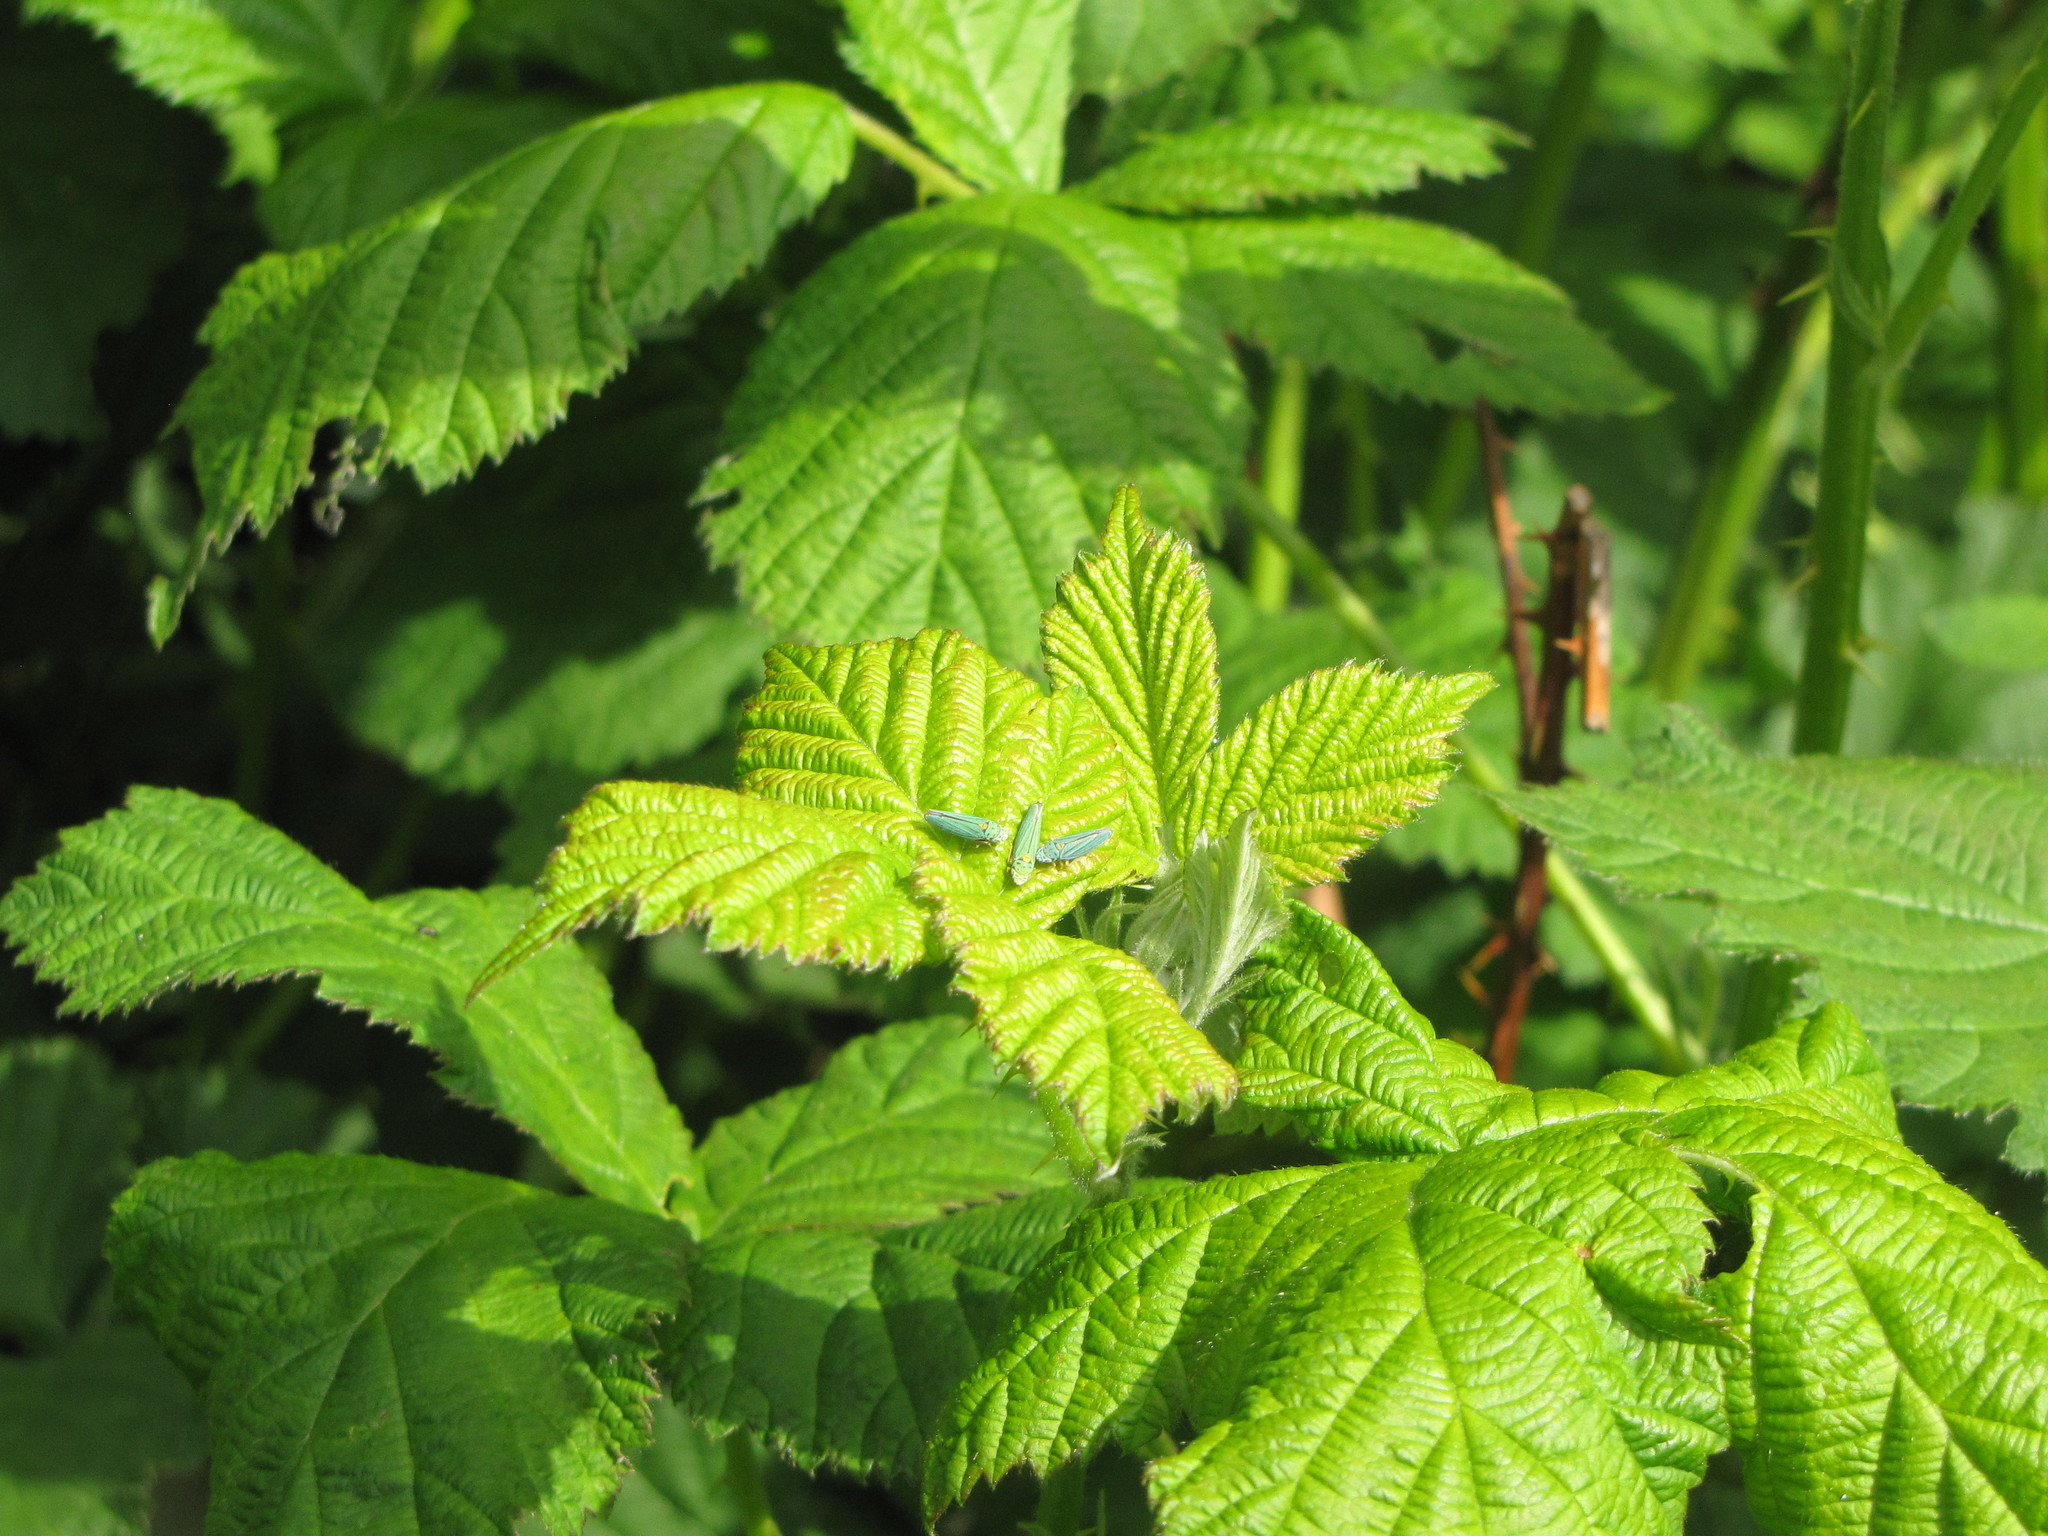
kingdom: Animalia
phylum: Arthropoda
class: Insecta
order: Hemiptera
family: Cicadellidae
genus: Graphocephala
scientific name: Graphocephala atropunctata
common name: Blue-green sharpshooter
